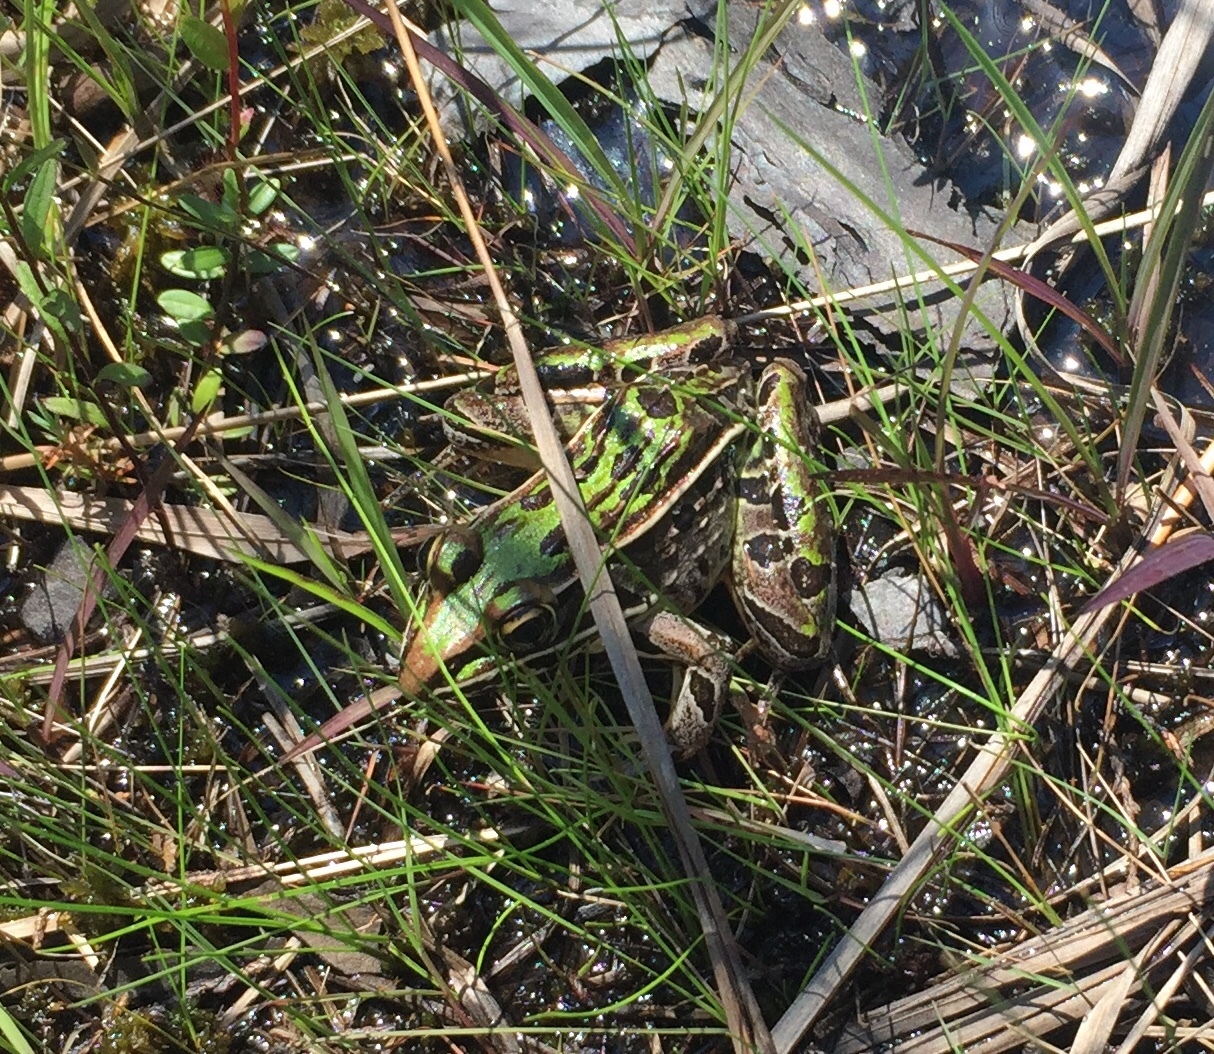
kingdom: Animalia
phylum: Chordata
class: Amphibia
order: Anura
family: Ranidae
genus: Lithobates
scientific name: Lithobates sphenocephalus
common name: Southern leopard frog
